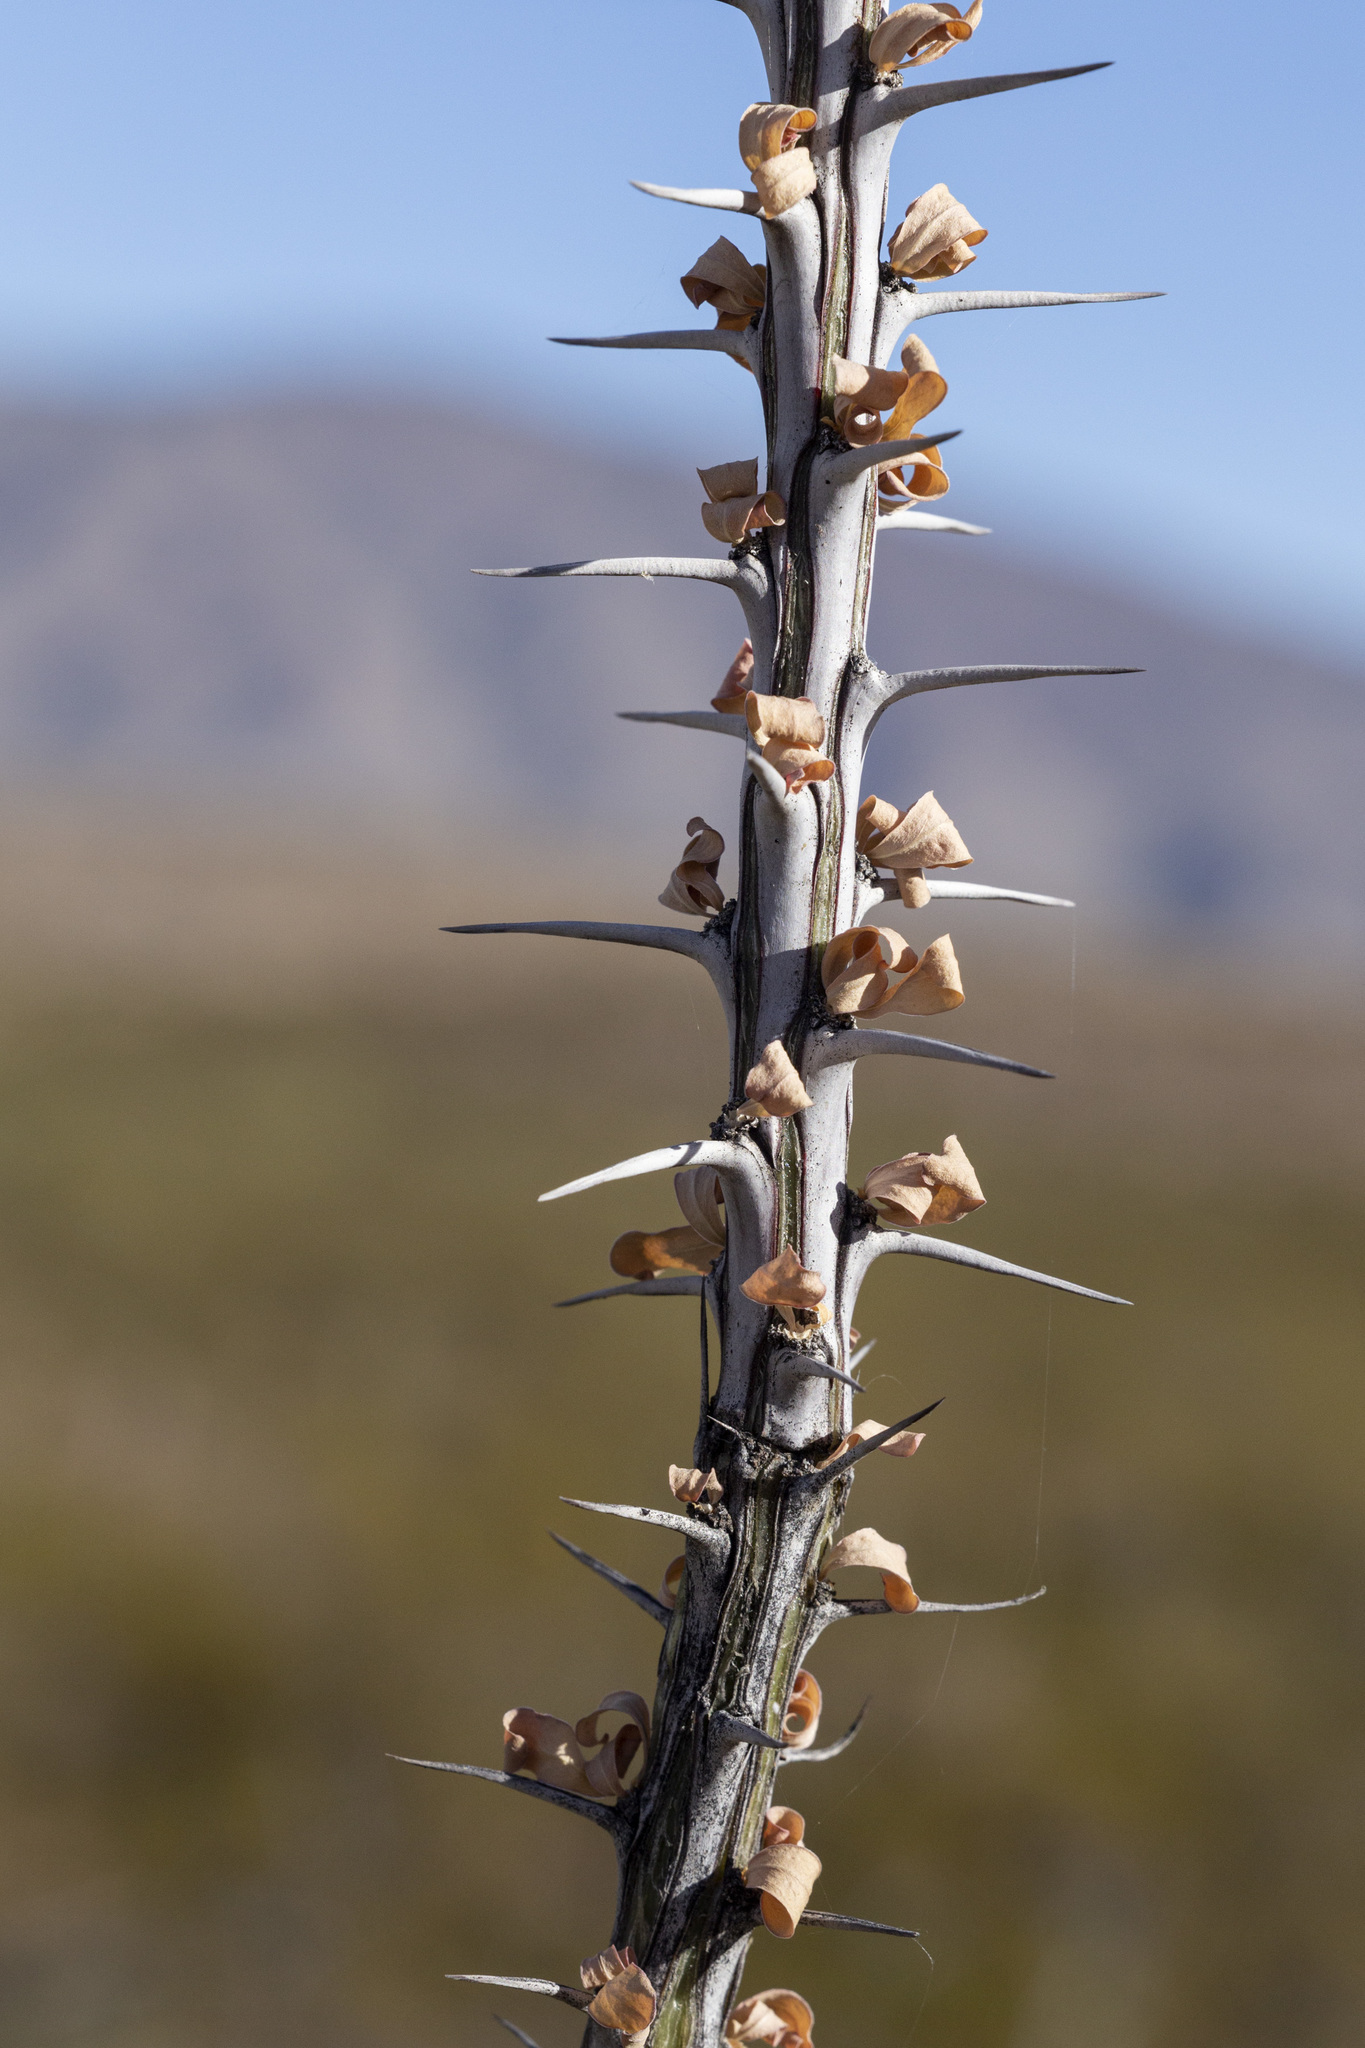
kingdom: Plantae
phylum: Tracheophyta
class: Magnoliopsida
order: Ericales
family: Fouquieriaceae
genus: Fouquieria
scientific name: Fouquieria splendens
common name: Vine-cactus
